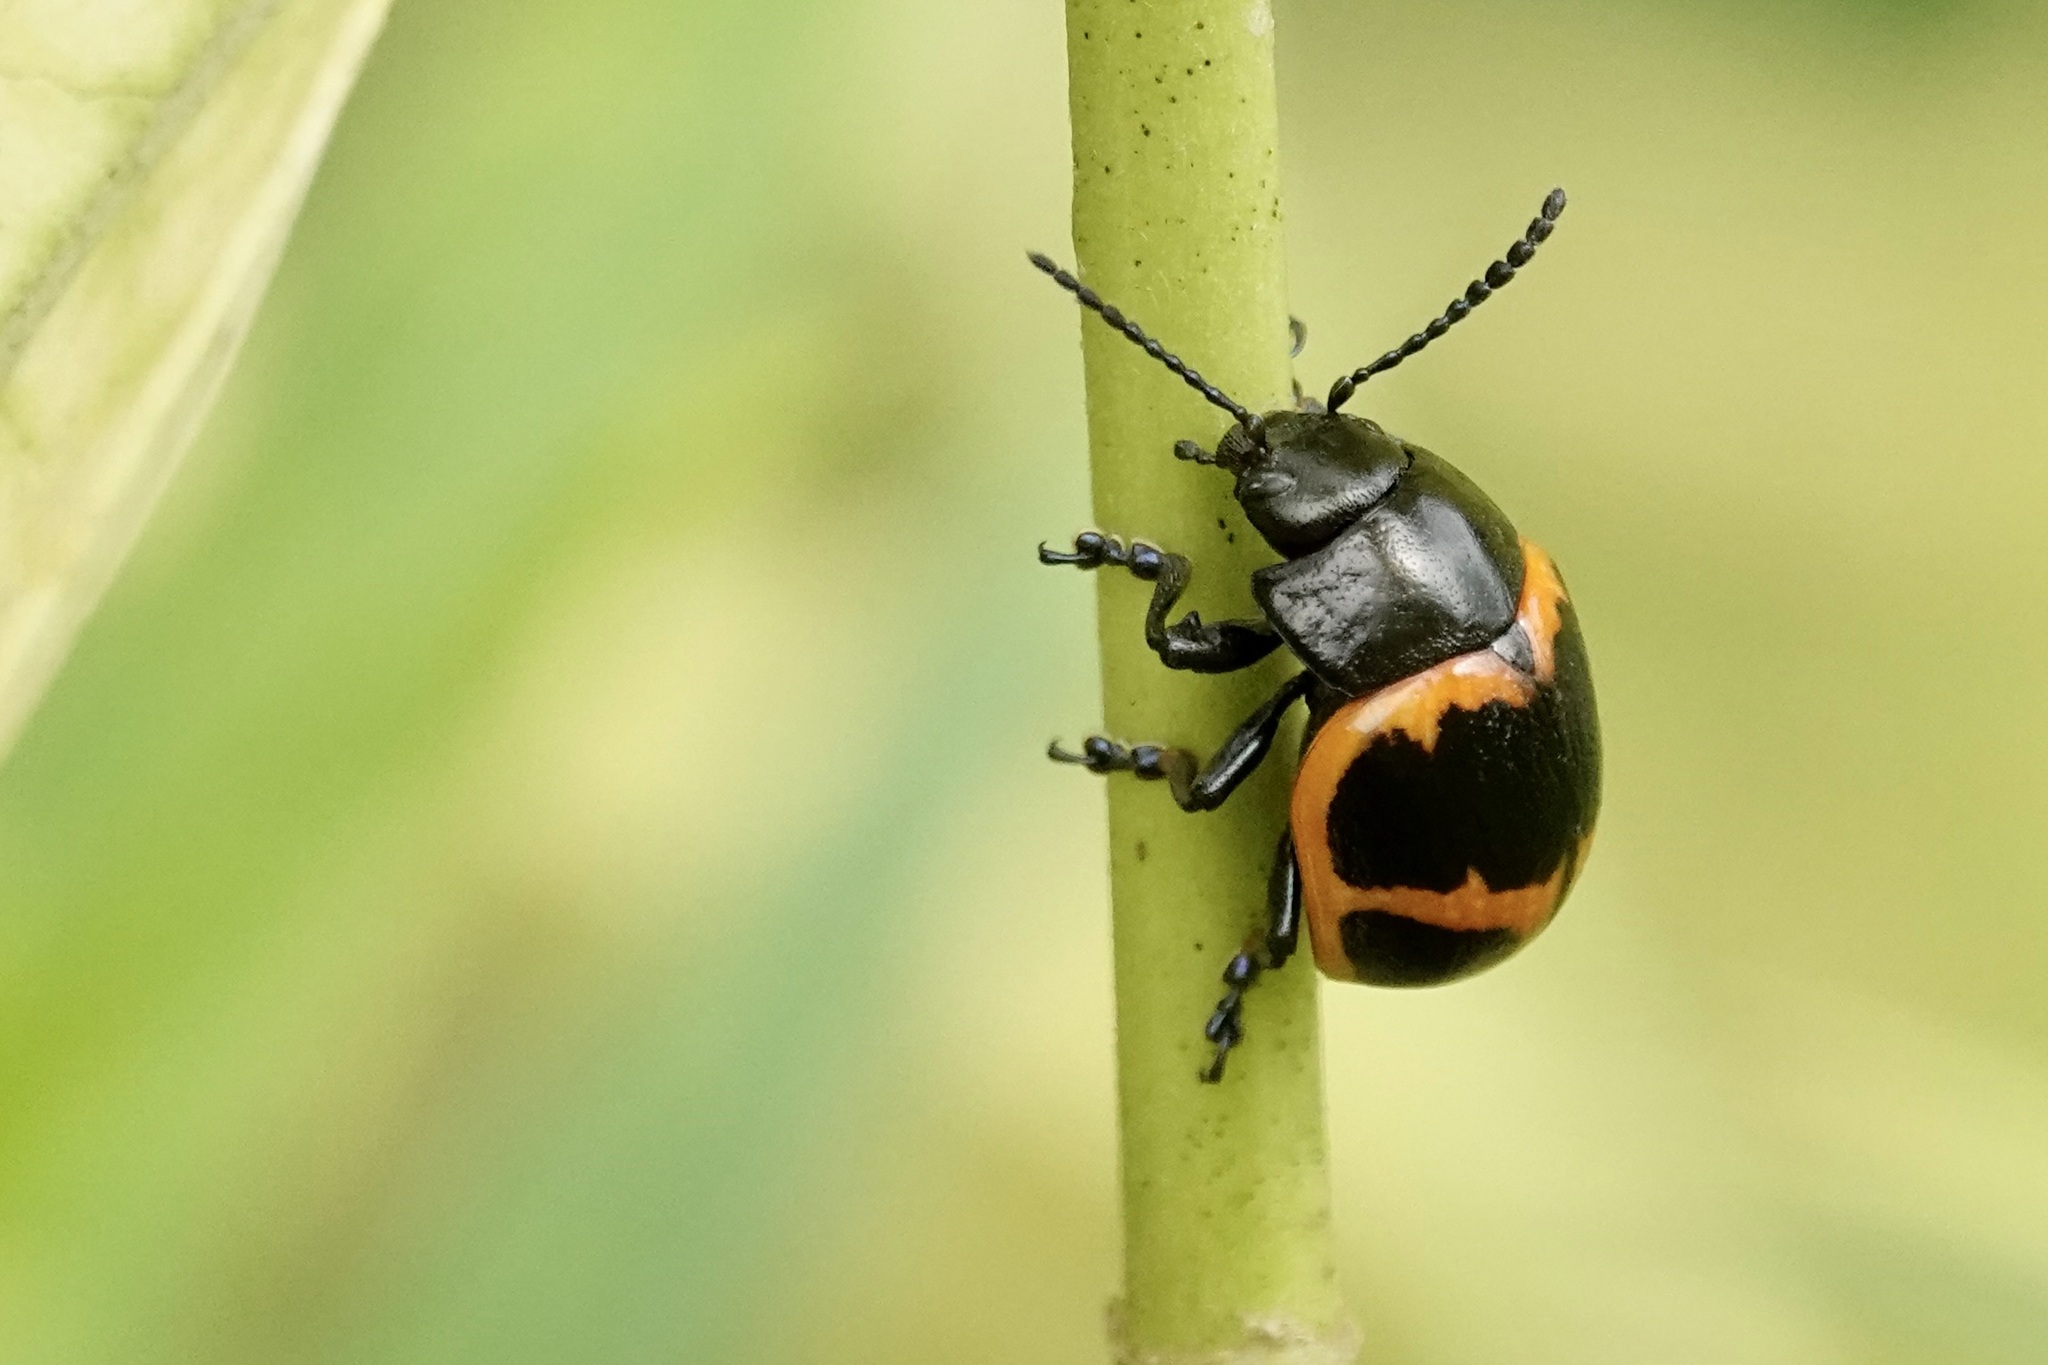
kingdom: Animalia
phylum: Arthropoda
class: Insecta
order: Coleoptera
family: Chrysomelidae
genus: Labidomera
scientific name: Labidomera clivicollis
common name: Swamp milkweed leaf beetle
